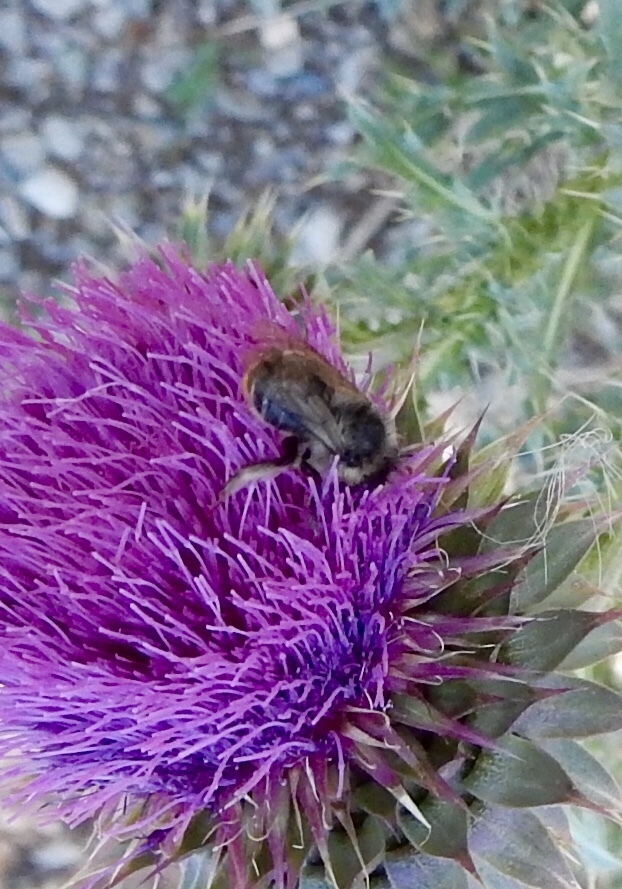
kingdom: Animalia
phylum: Arthropoda
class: Insecta
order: Hymenoptera
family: Apidae
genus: Anthophora
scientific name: Anthophora terminalis
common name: Orange-tipped wood-digger bee
